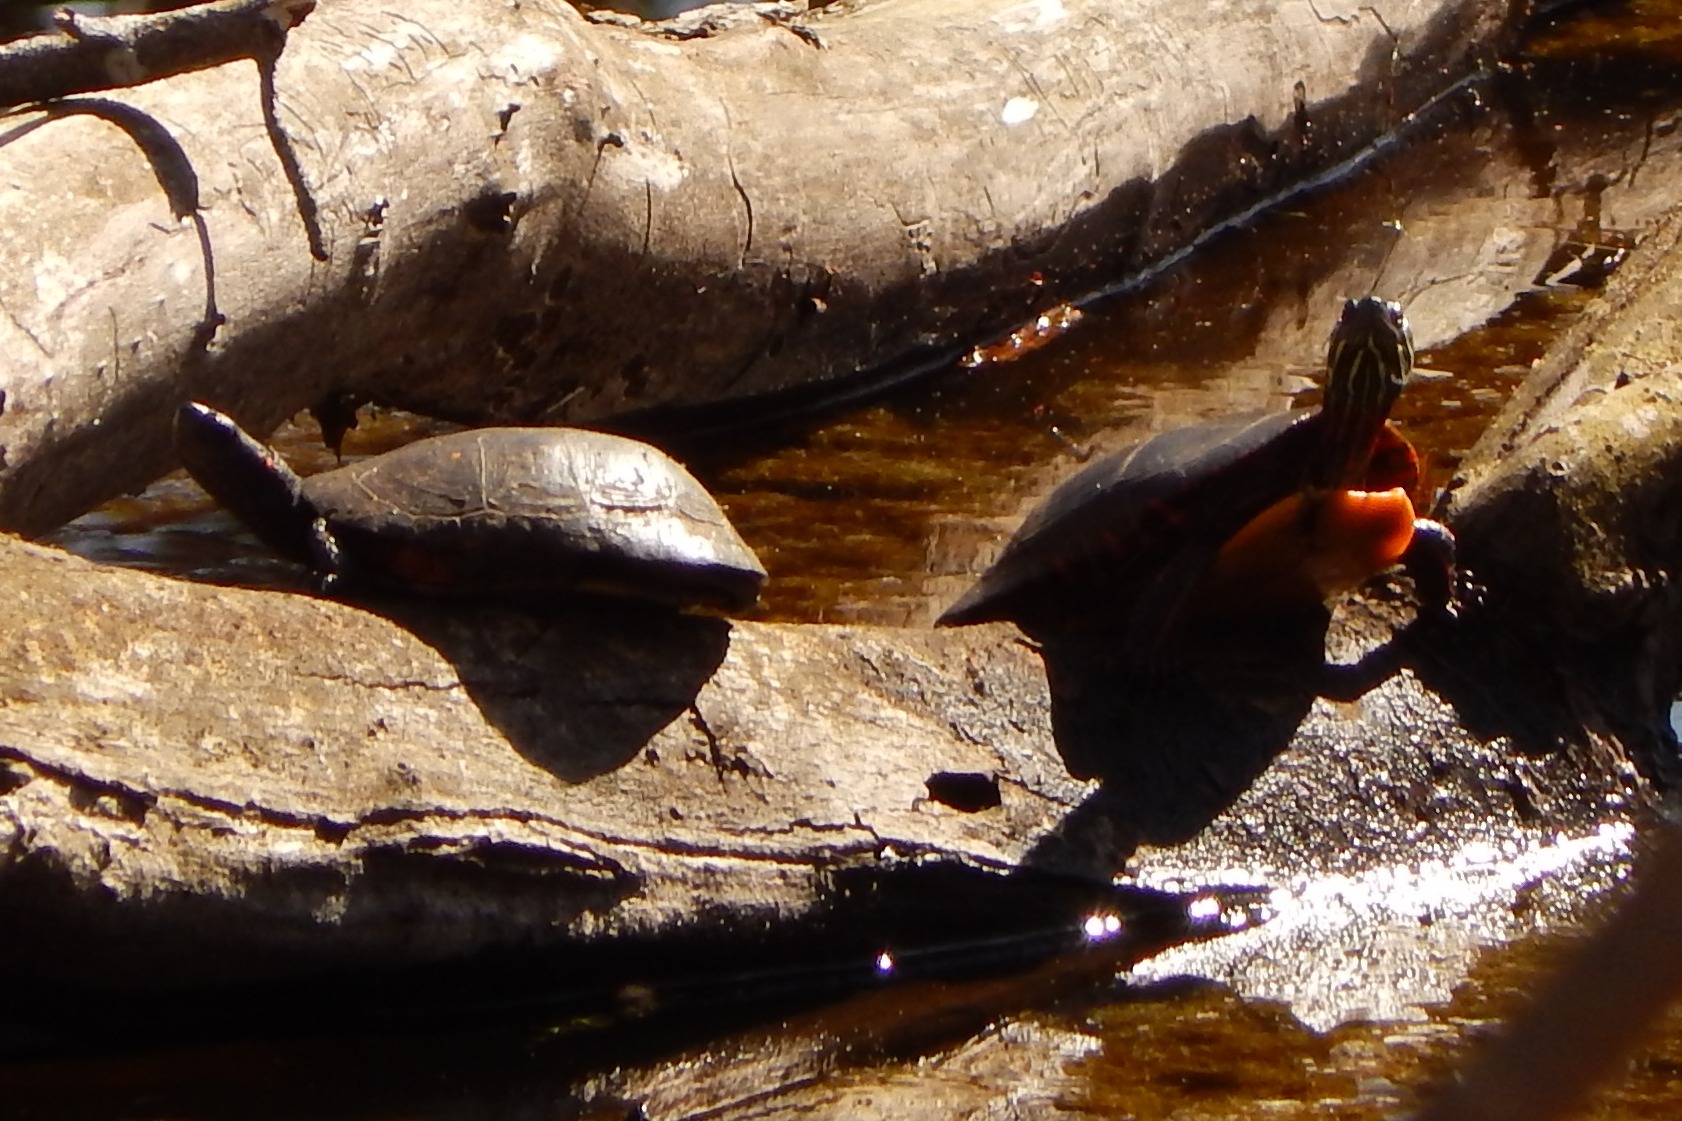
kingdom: Animalia
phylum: Chordata
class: Testudines
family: Emydidae
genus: Clemmys
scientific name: Clemmys guttata
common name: Spotted turtle
